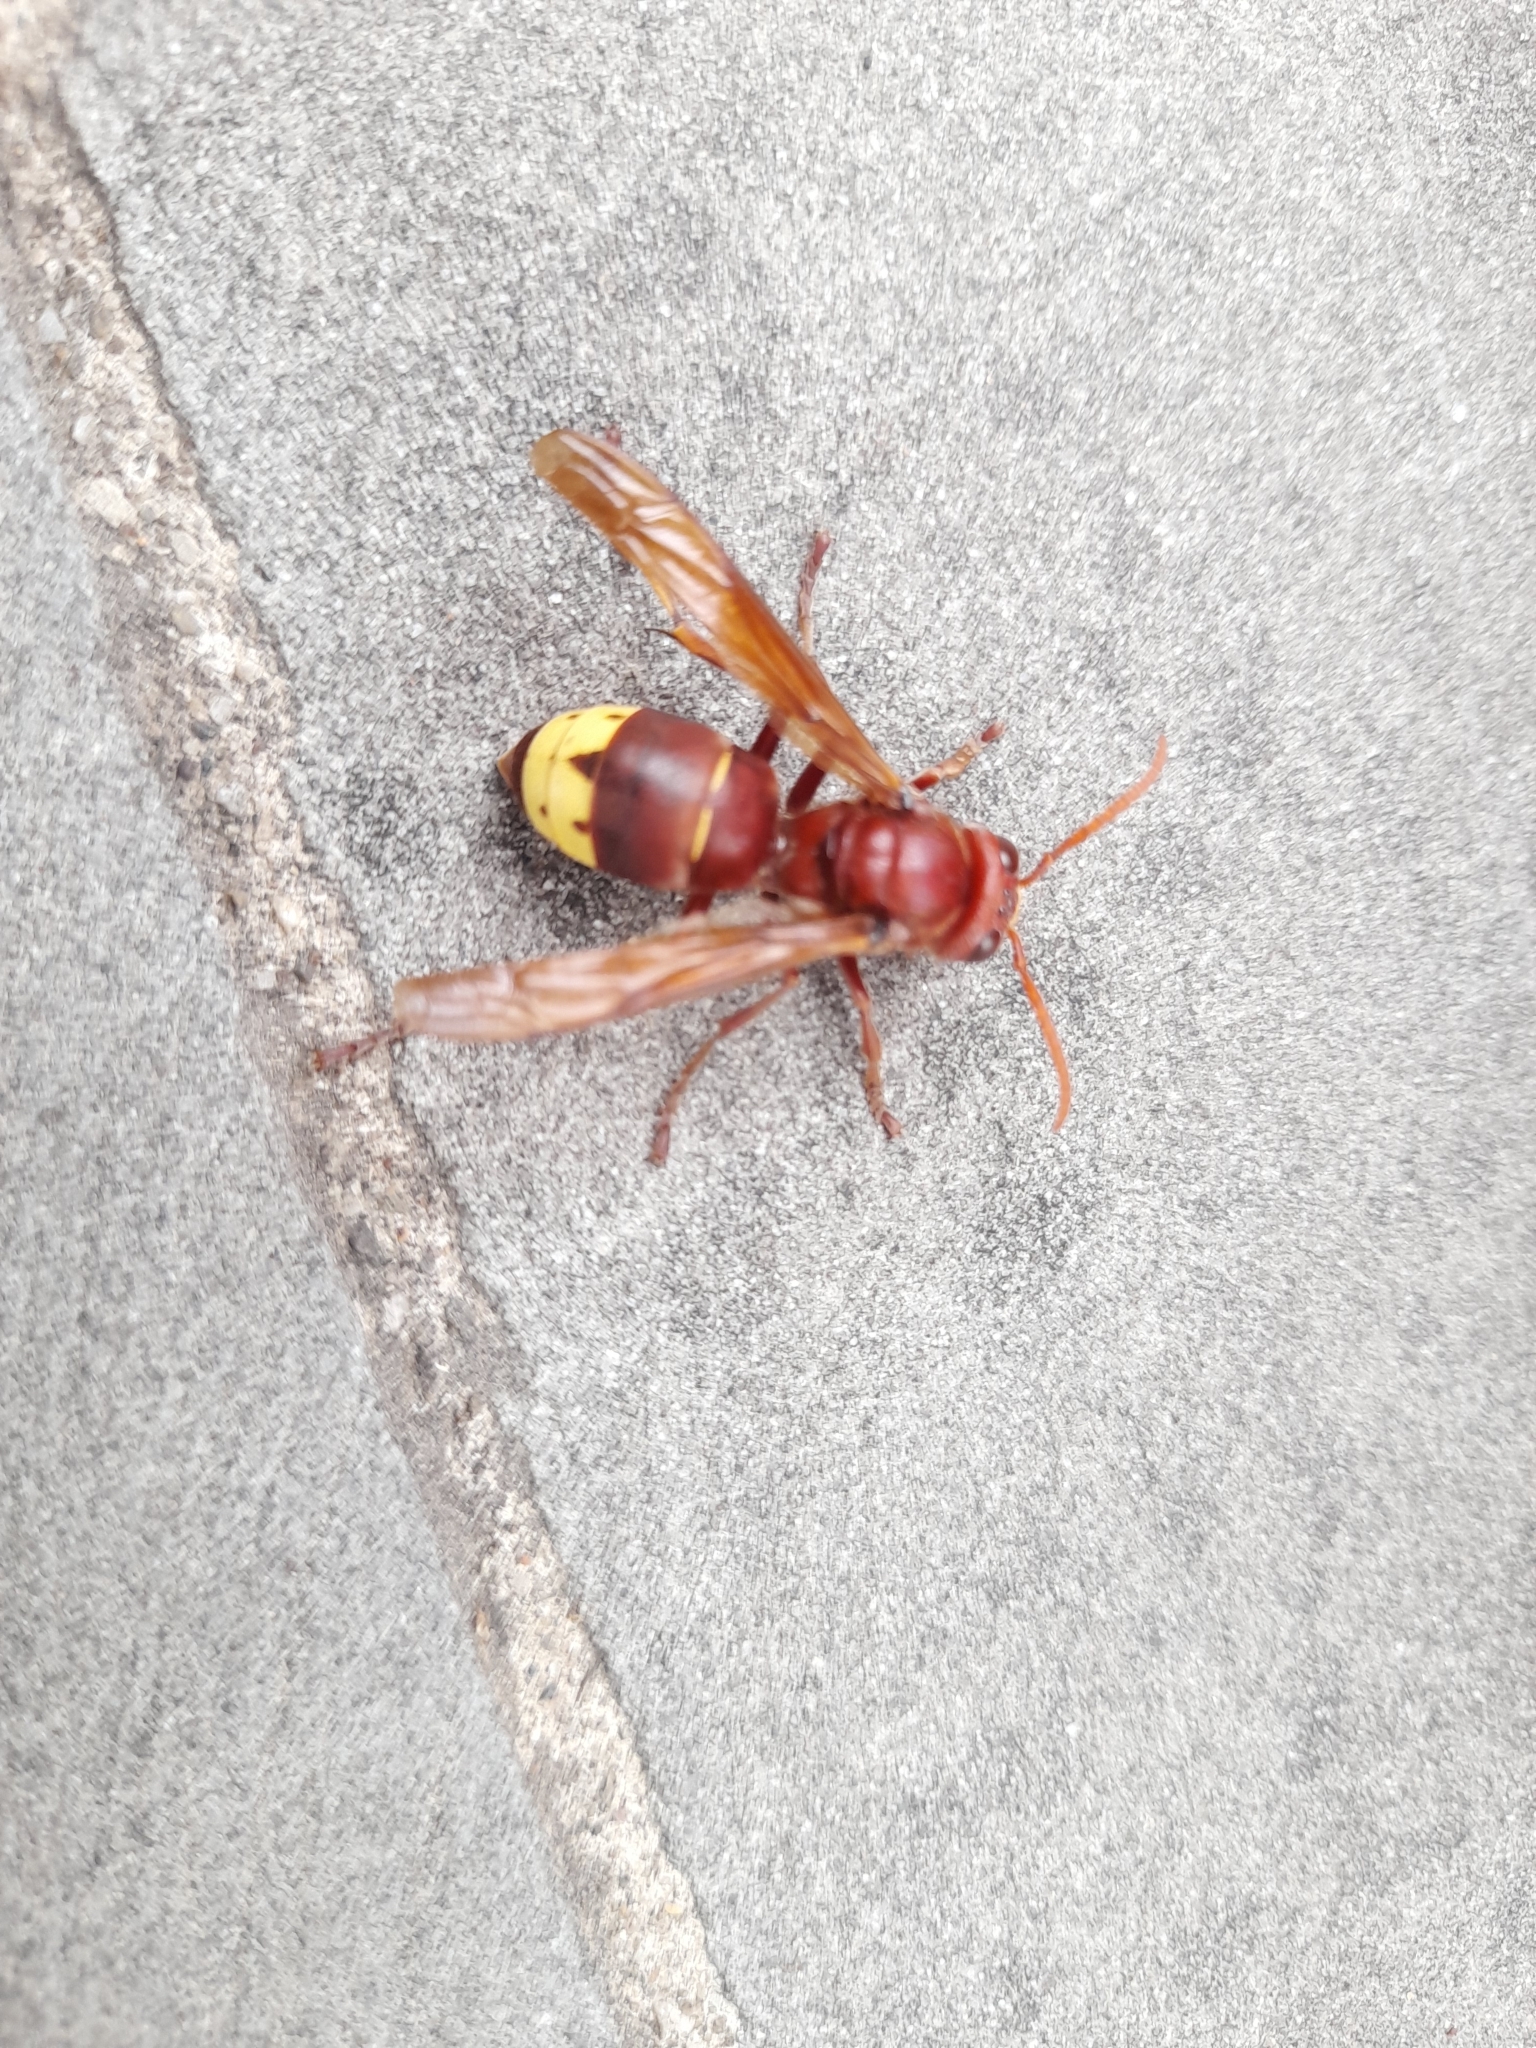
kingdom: Animalia
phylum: Arthropoda
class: Insecta
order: Hymenoptera
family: Vespidae
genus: Vespa
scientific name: Vespa orientalis
